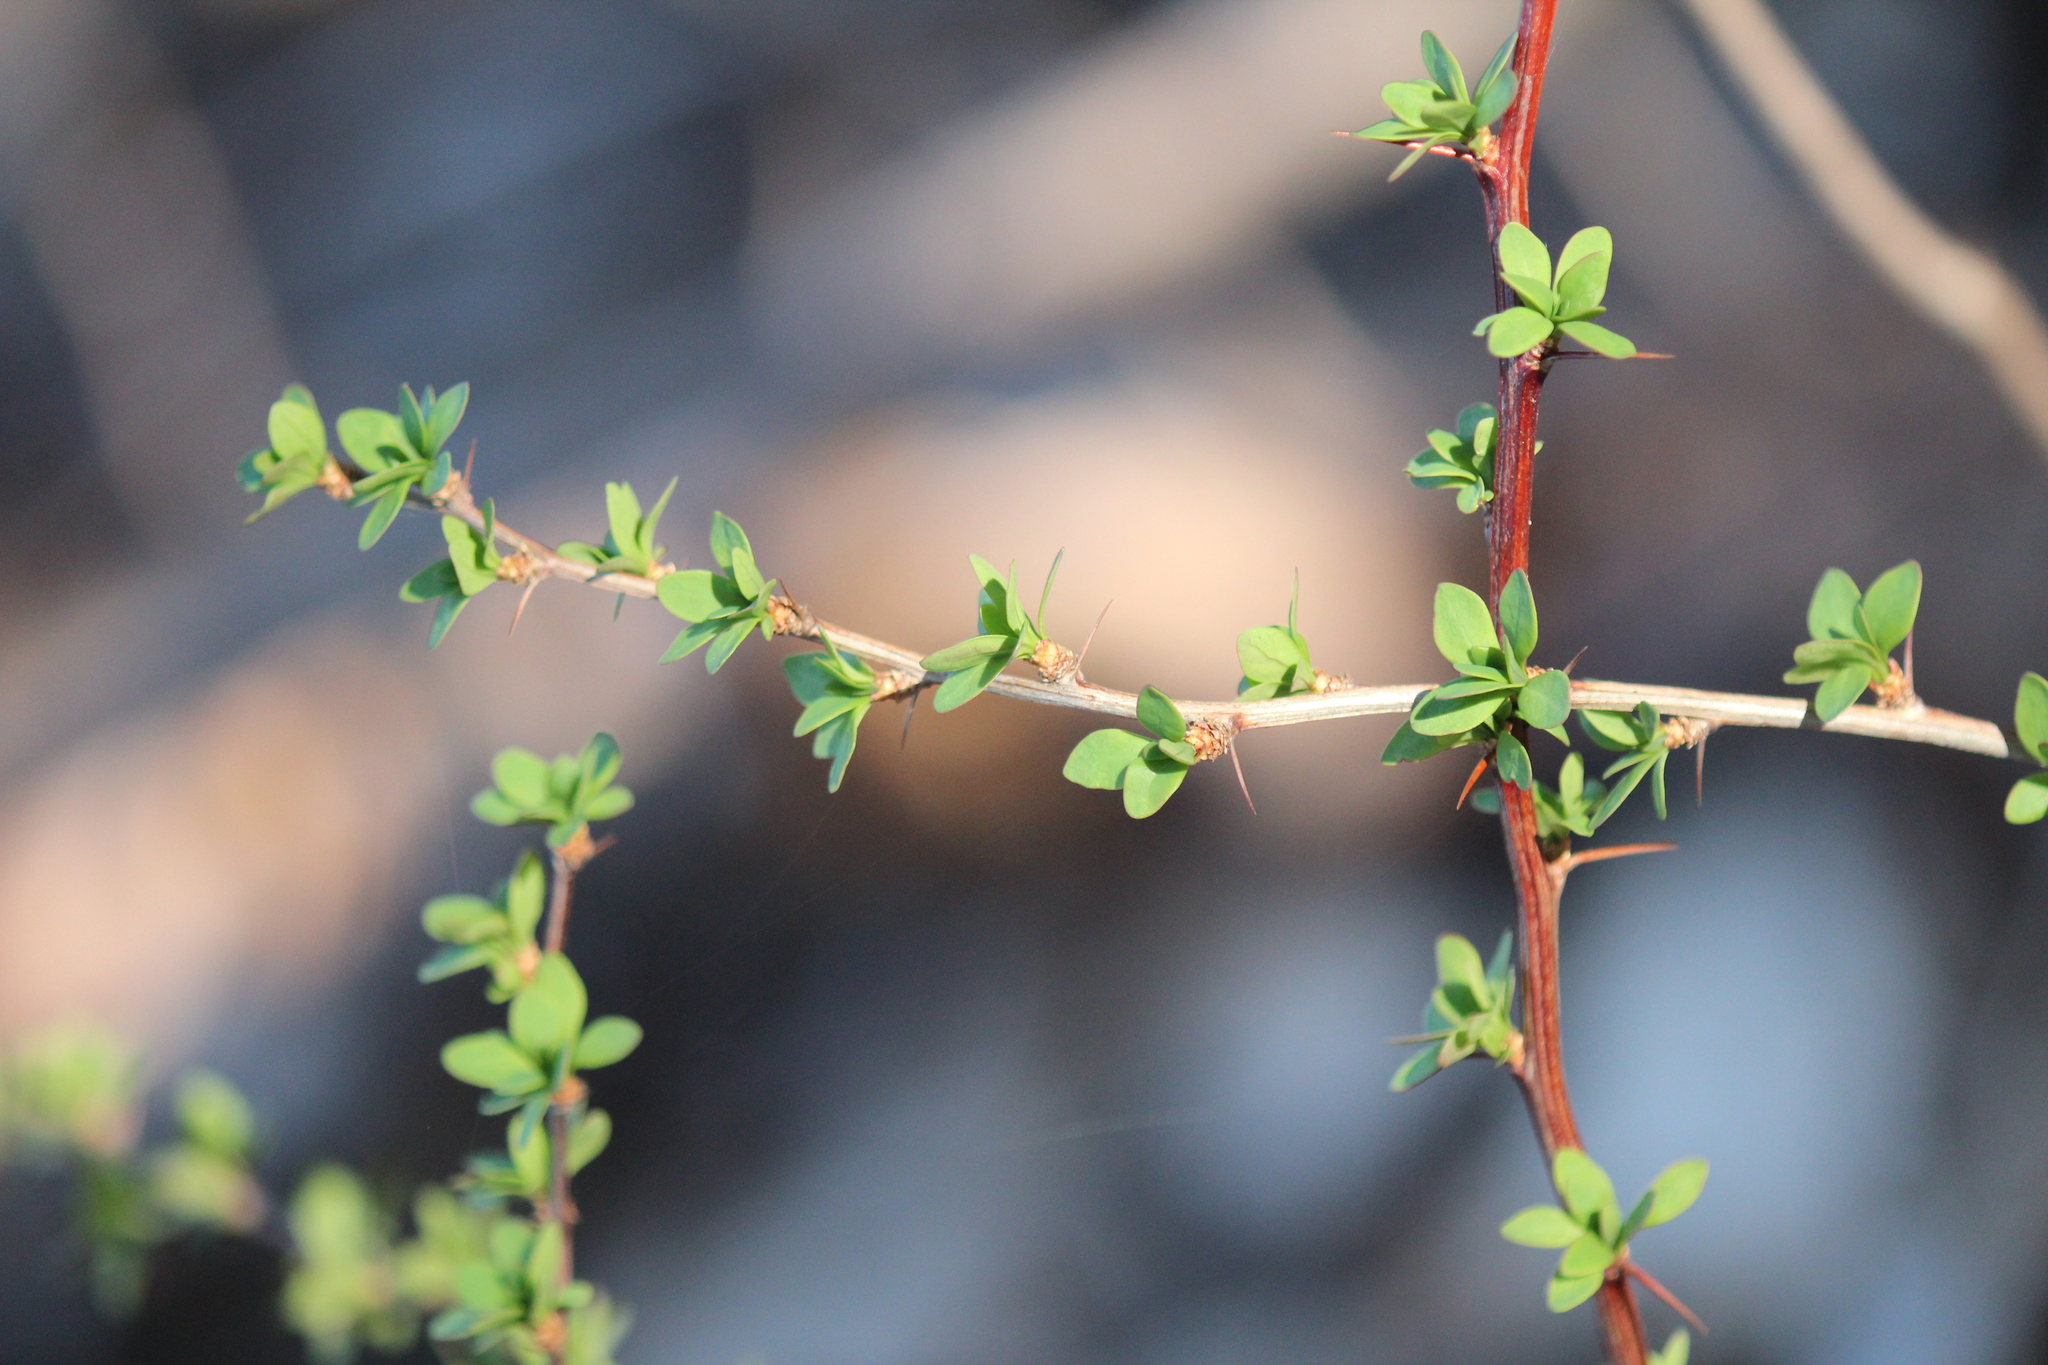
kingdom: Plantae
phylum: Tracheophyta
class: Magnoliopsida
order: Ranunculales
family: Berberidaceae
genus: Berberis
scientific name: Berberis thunbergii
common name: Japanese barberry
